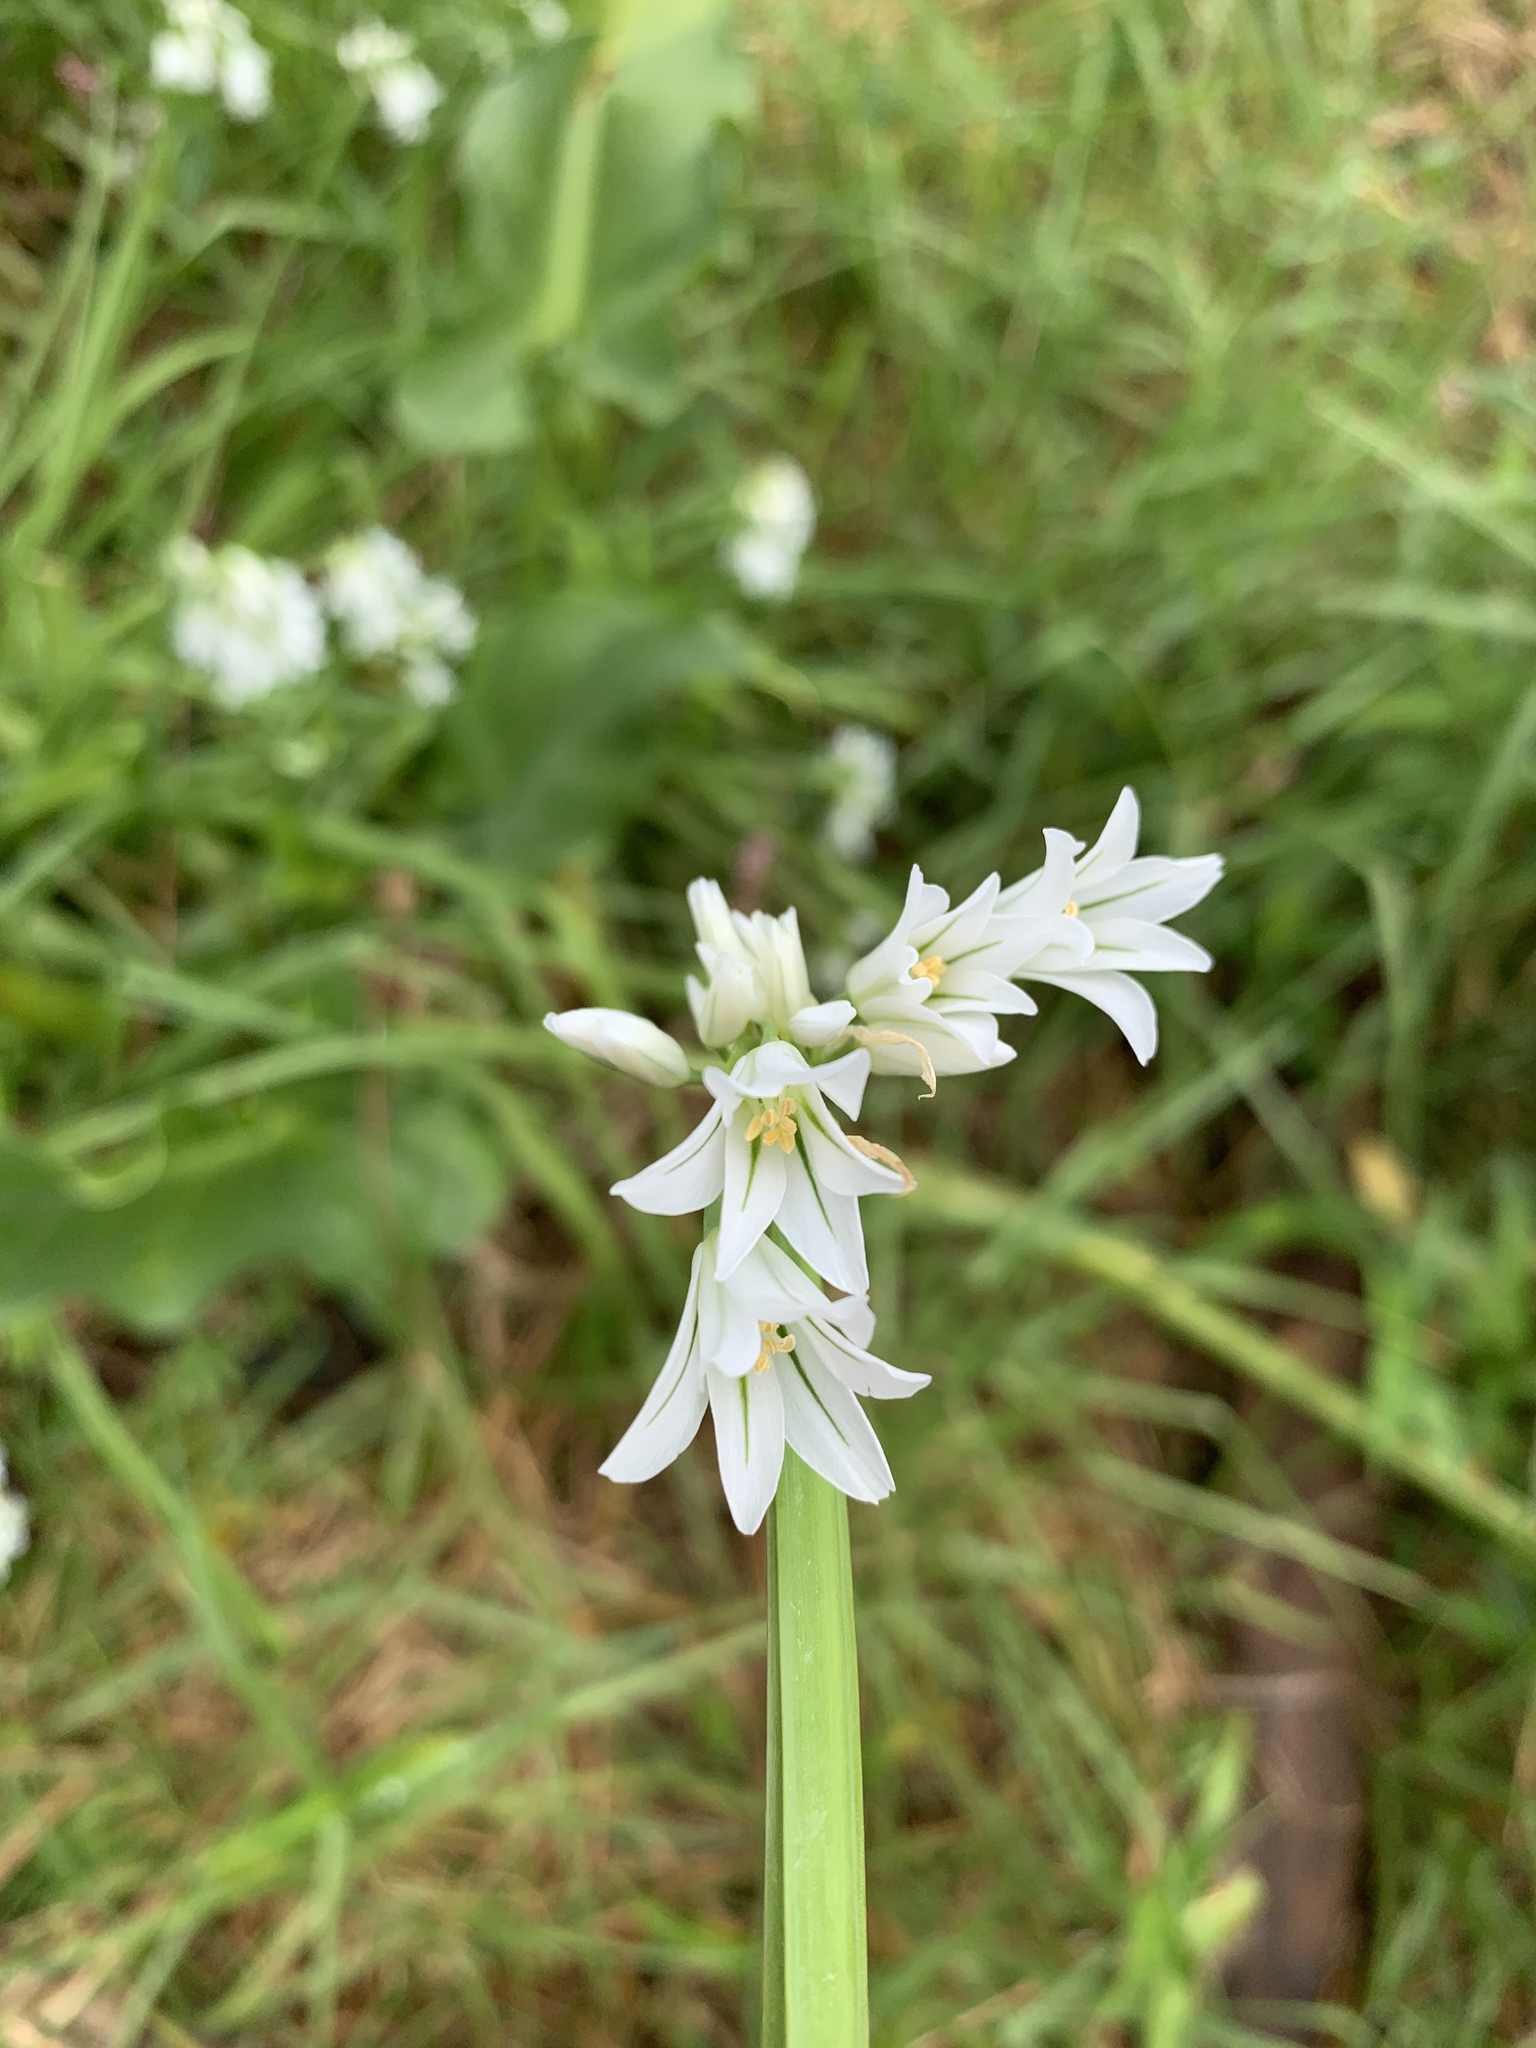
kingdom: Plantae
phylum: Tracheophyta
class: Liliopsida
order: Asparagales
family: Amaryllidaceae
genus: Allium
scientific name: Allium triquetrum
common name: Three-cornered garlic
